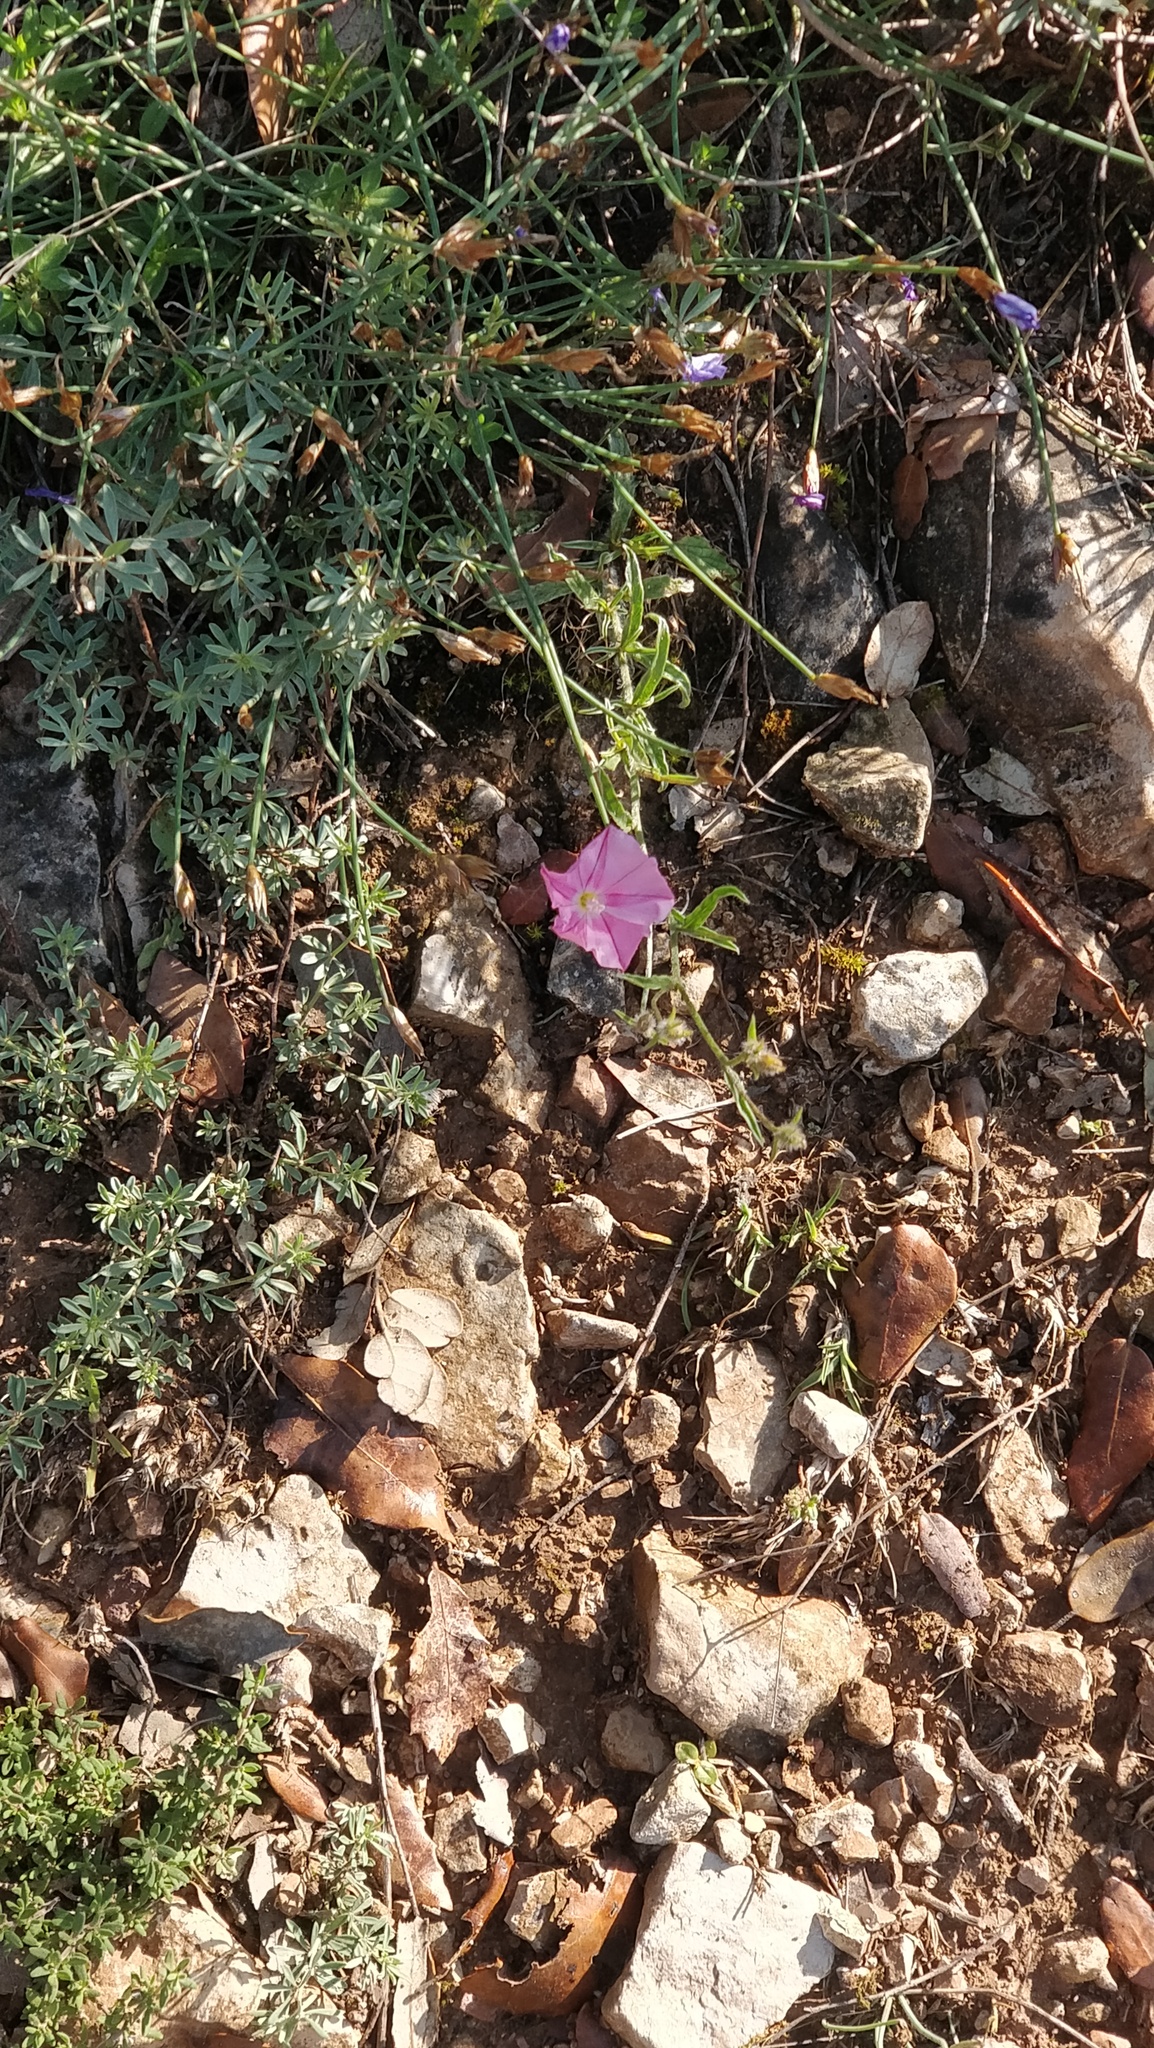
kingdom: Plantae
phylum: Tracheophyta
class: Magnoliopsida
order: Solanales
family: Convolvulaceae
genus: Convolvulus
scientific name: Convolvulus cantabrica
